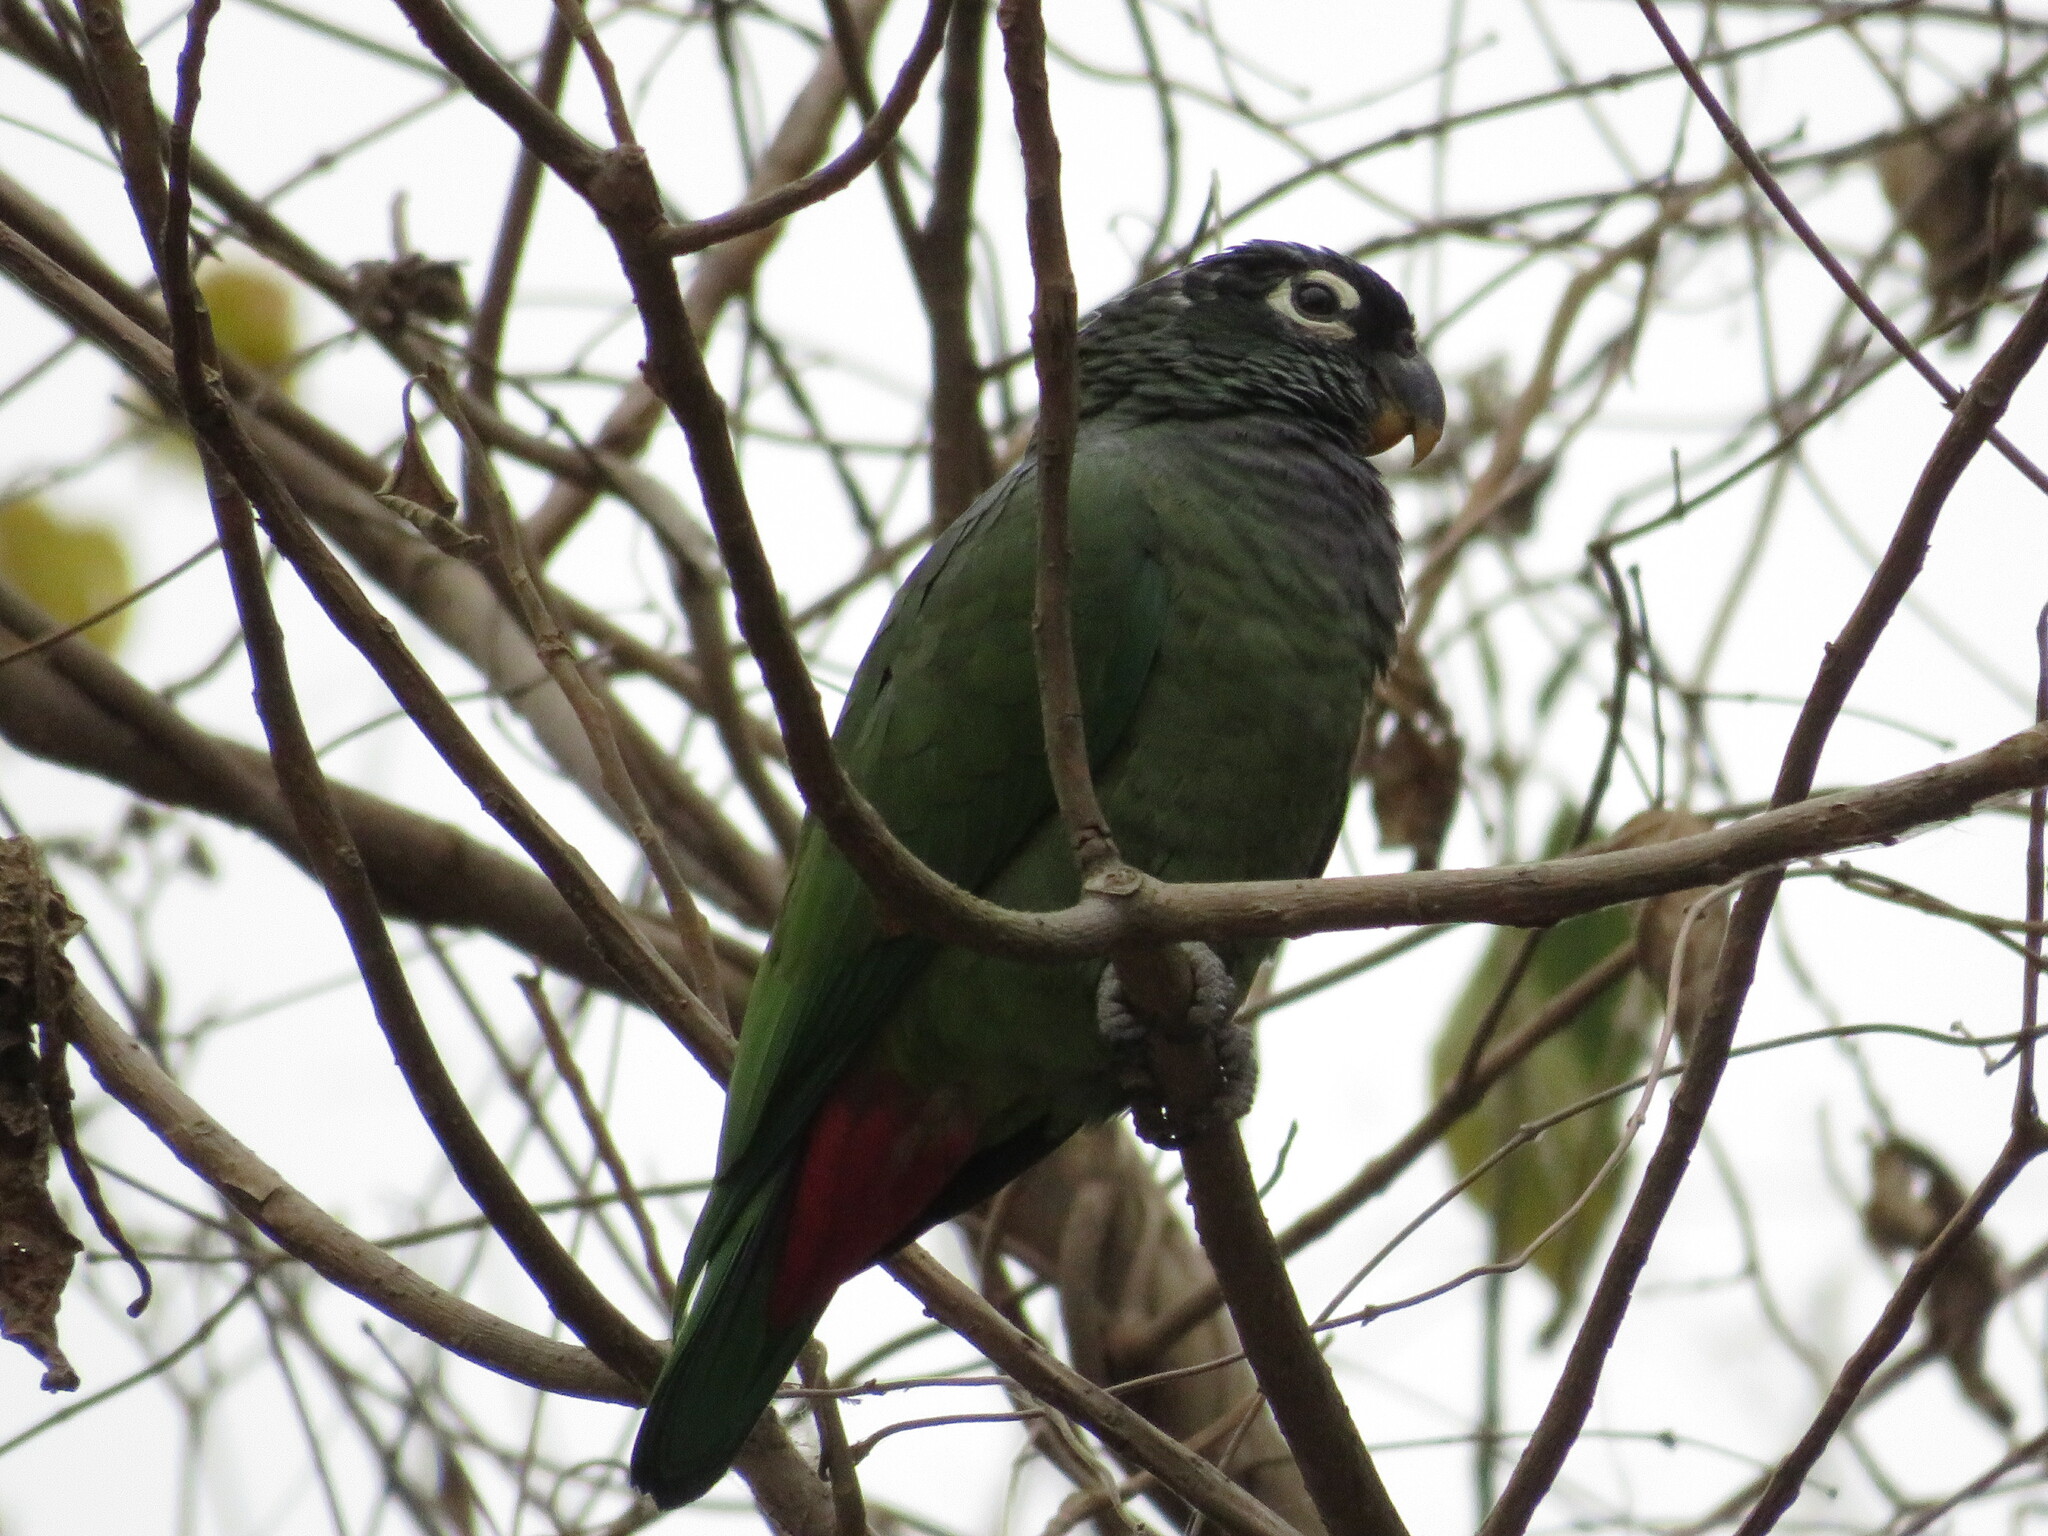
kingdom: Animalia
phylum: Chordata
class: Aves
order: Psittaciformes
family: Psittacidae
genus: Pionus
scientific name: Pionus maximiliani
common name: Scaly-headed parrot
